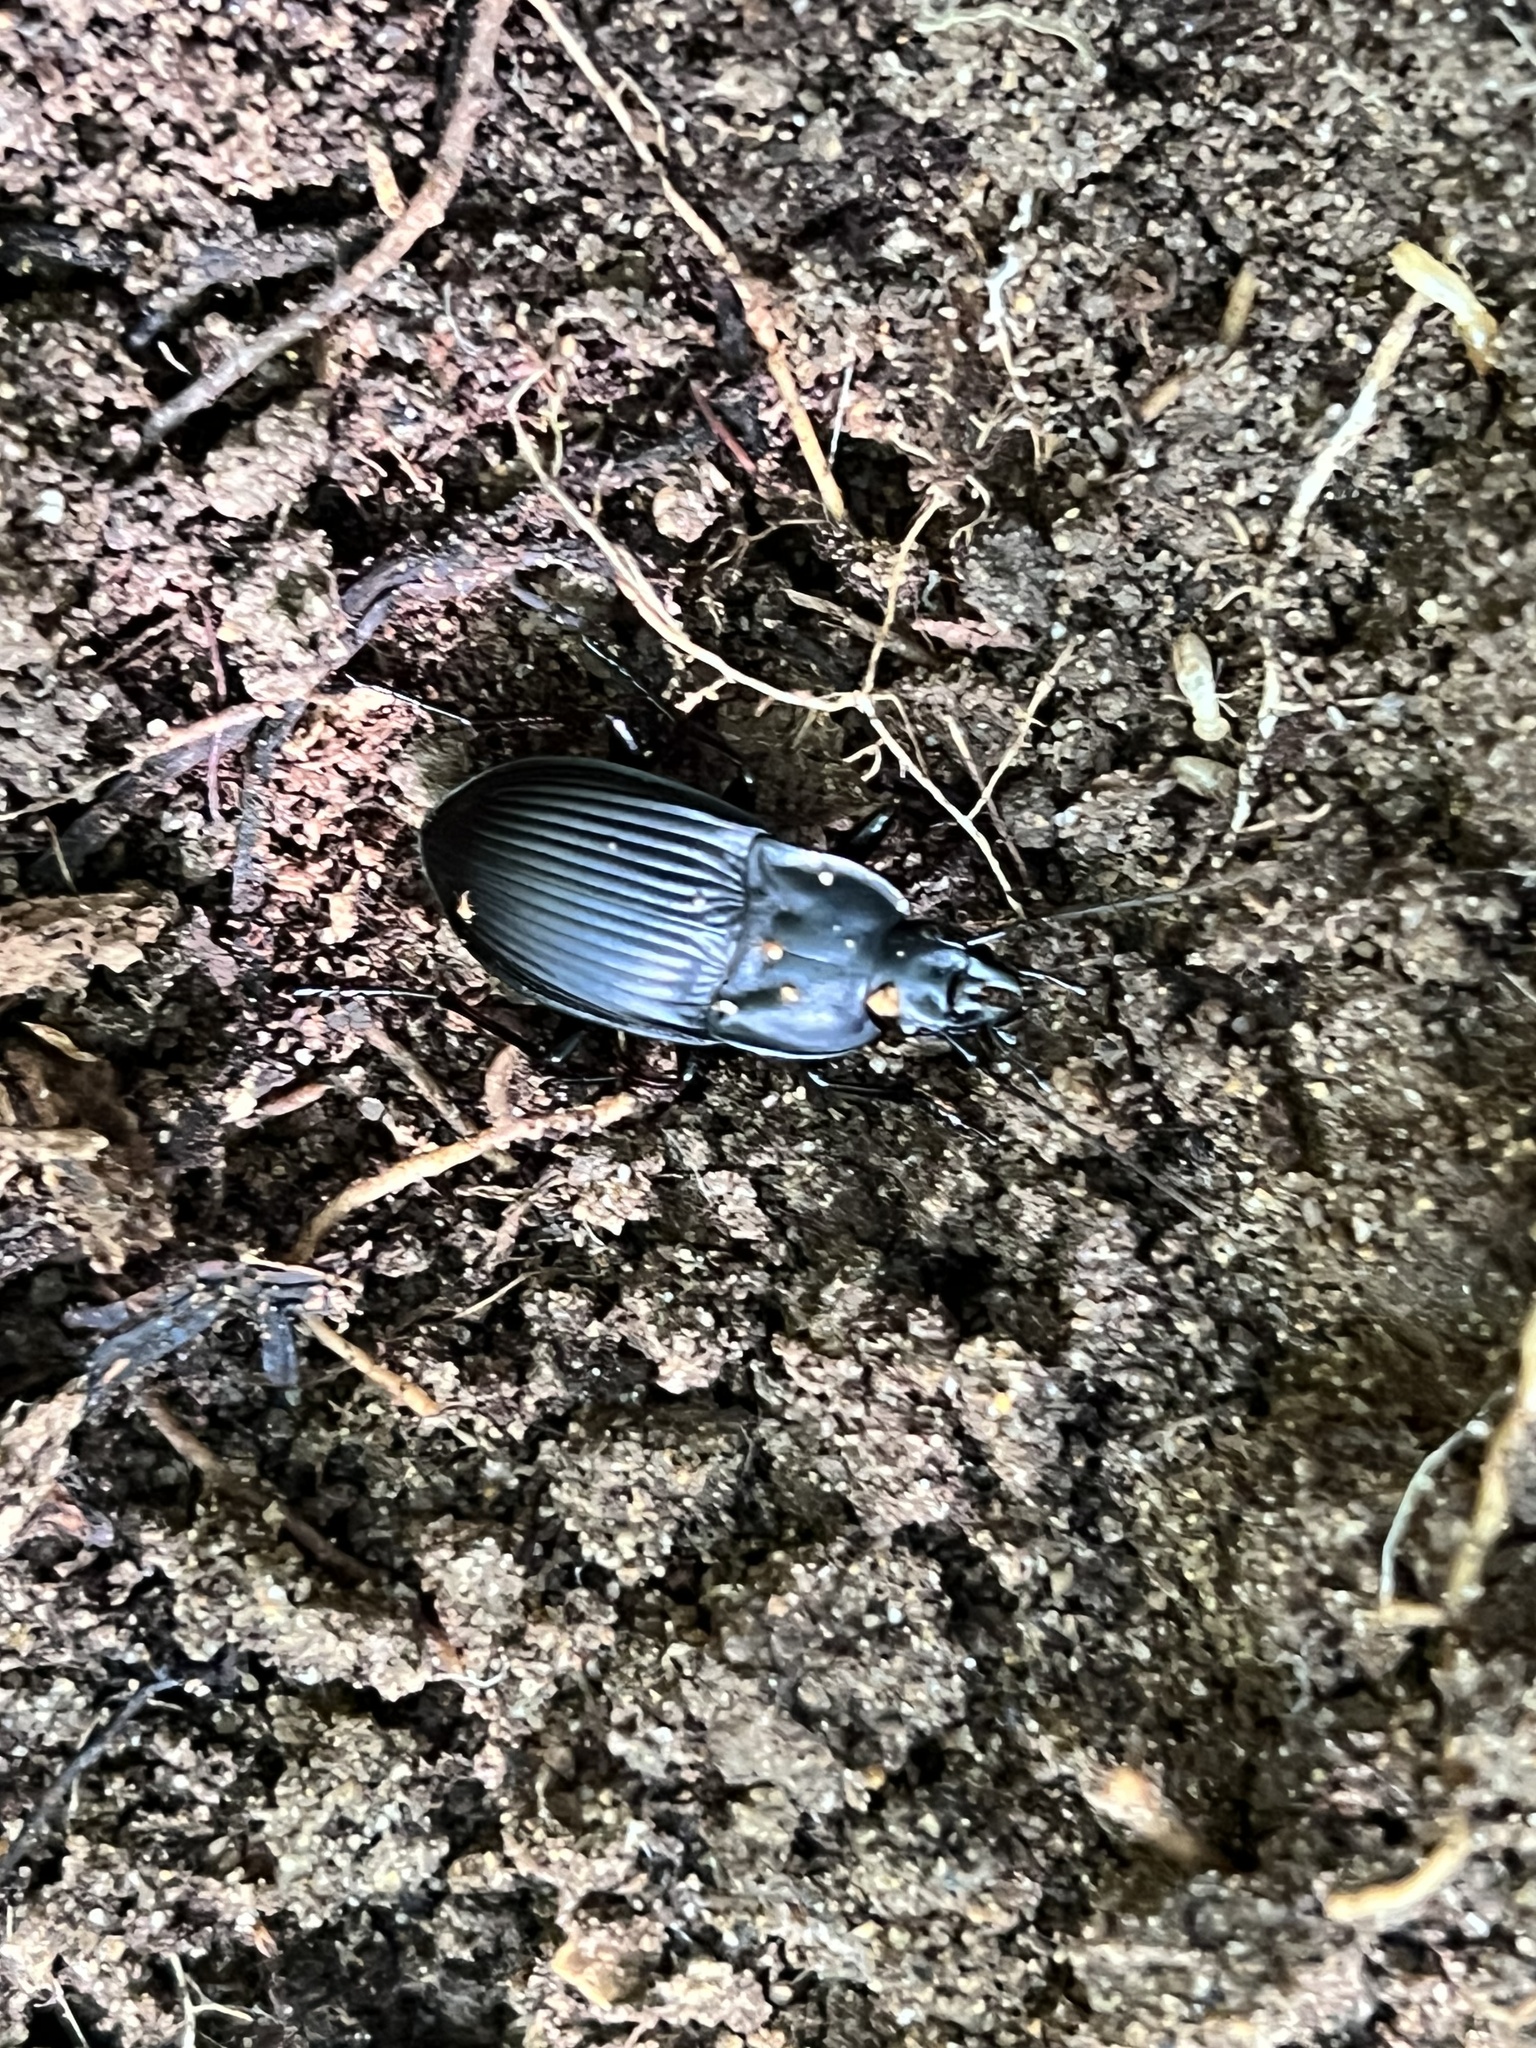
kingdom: Animalia
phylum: Arthropoda
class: Insecta
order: Coleoptera
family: Carabidae
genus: Dicaelus
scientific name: Dicaelus dilatatus
